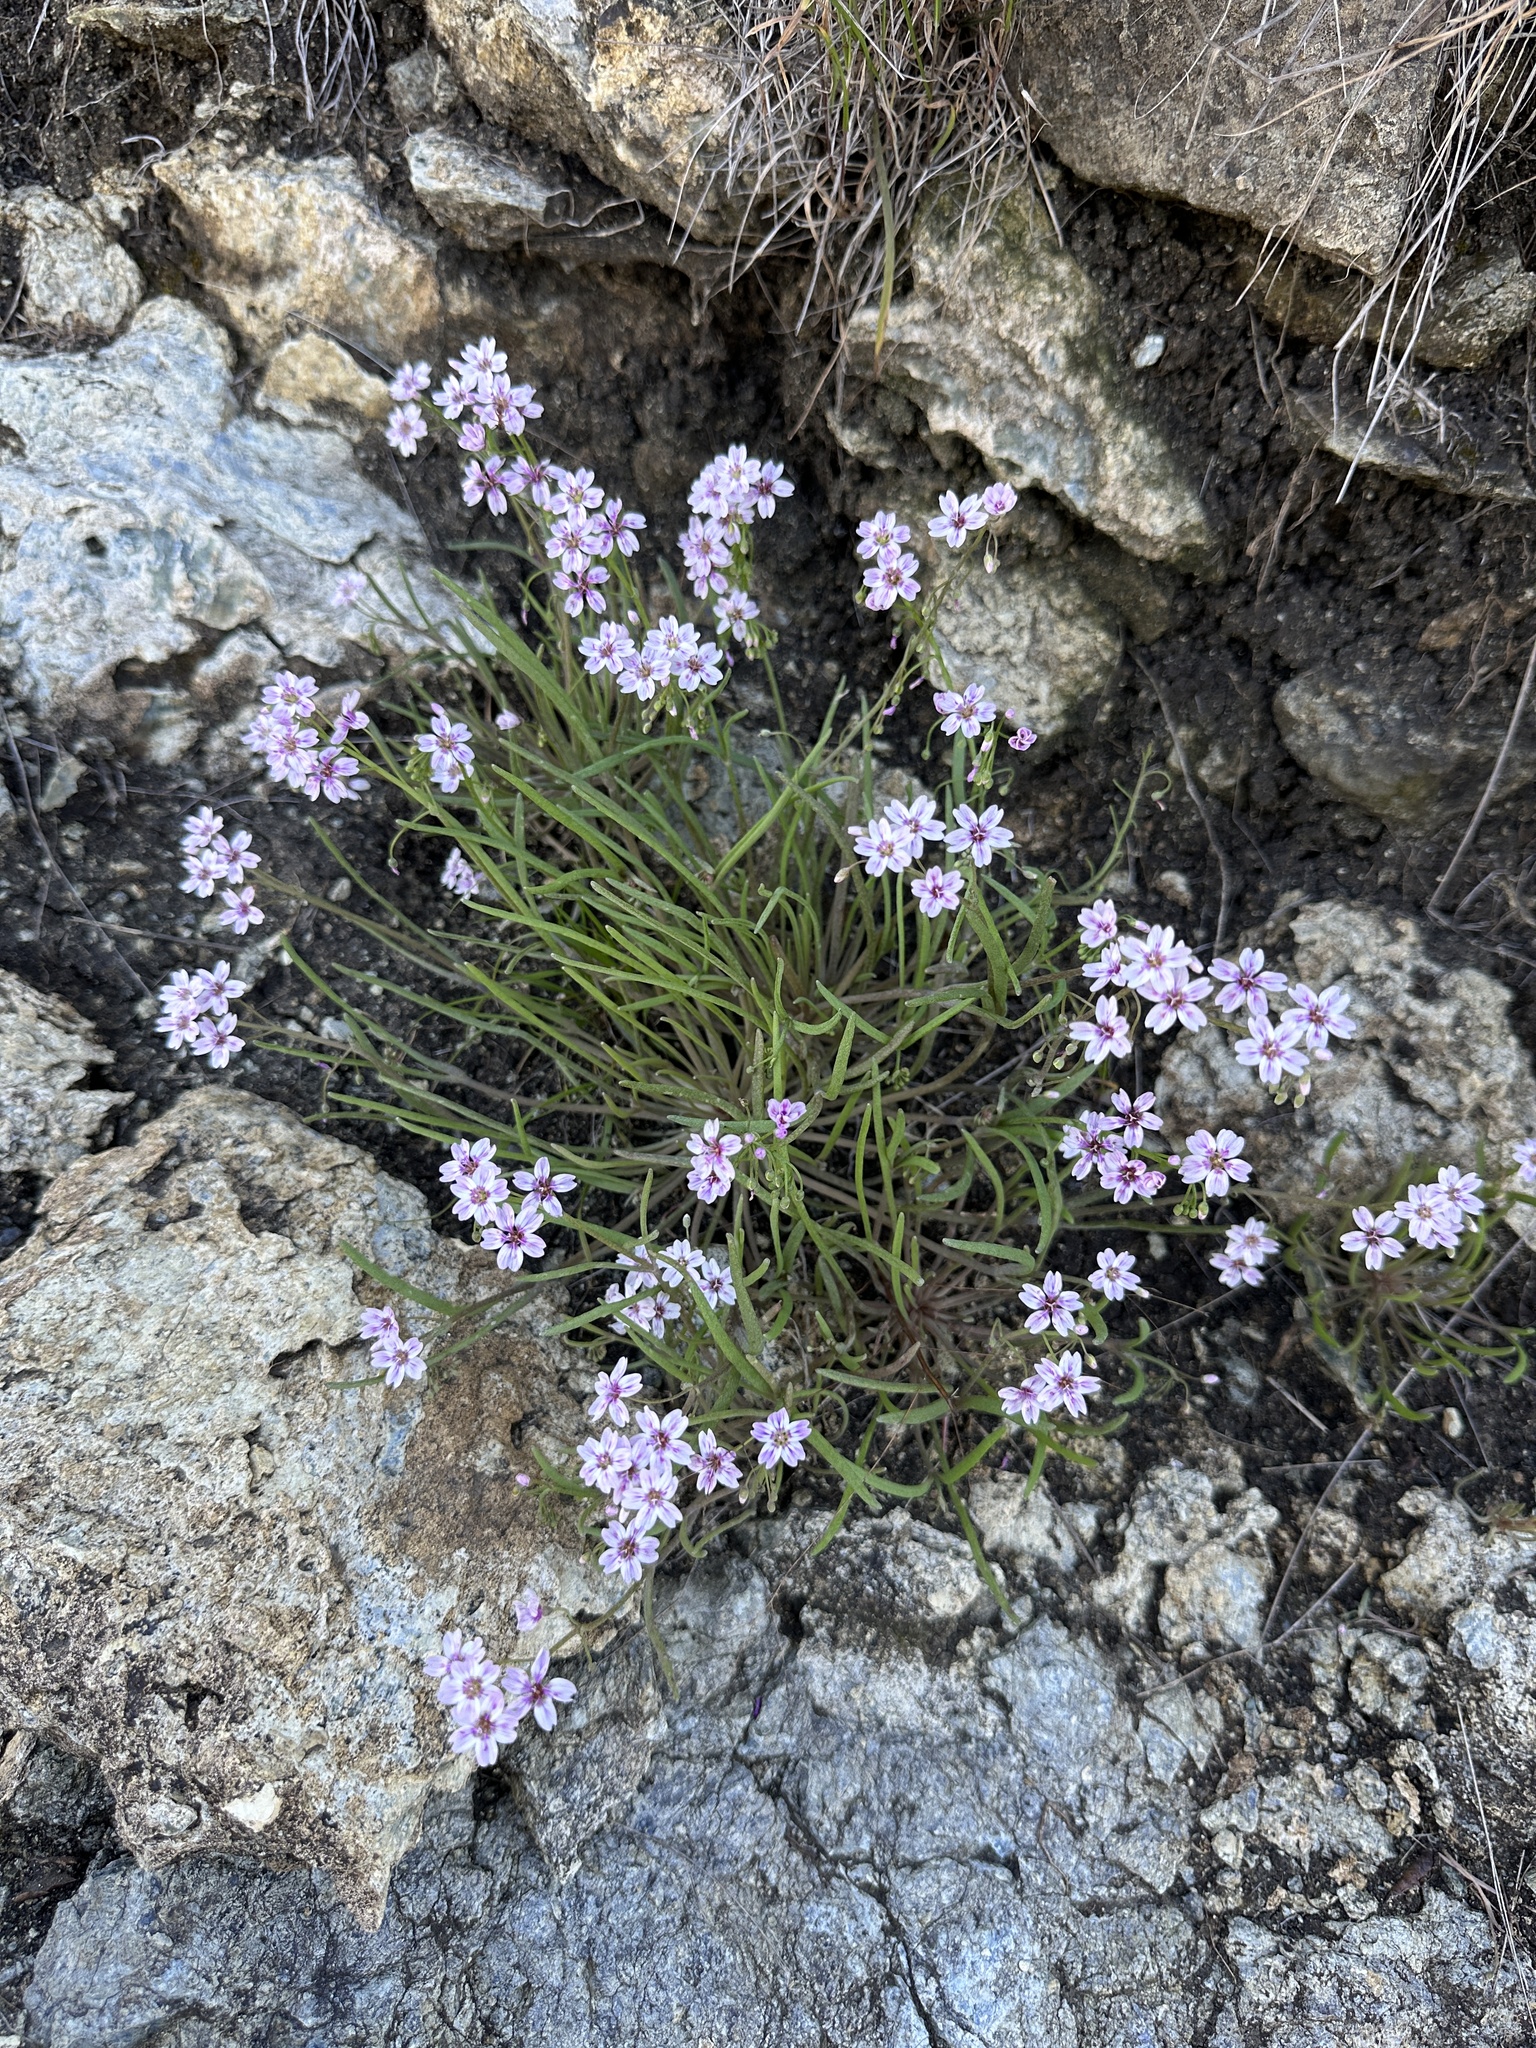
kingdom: Plantae
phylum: Tracheophyta
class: Magnoliopsida
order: Caryophyllales
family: Montiaceae
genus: Claytonia
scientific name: Claytonia gypsophiloides
